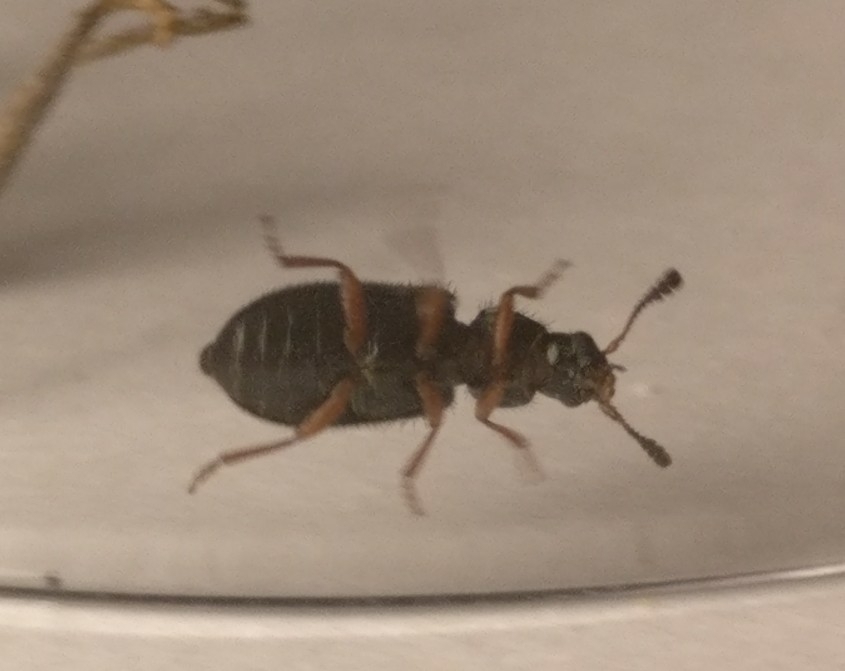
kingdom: Animalia
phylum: Arthropoda
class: Insecta
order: Coleoptera
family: Cleridae
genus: Necrobia
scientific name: Necrobia rufipes
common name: Red-legged ham beetle
